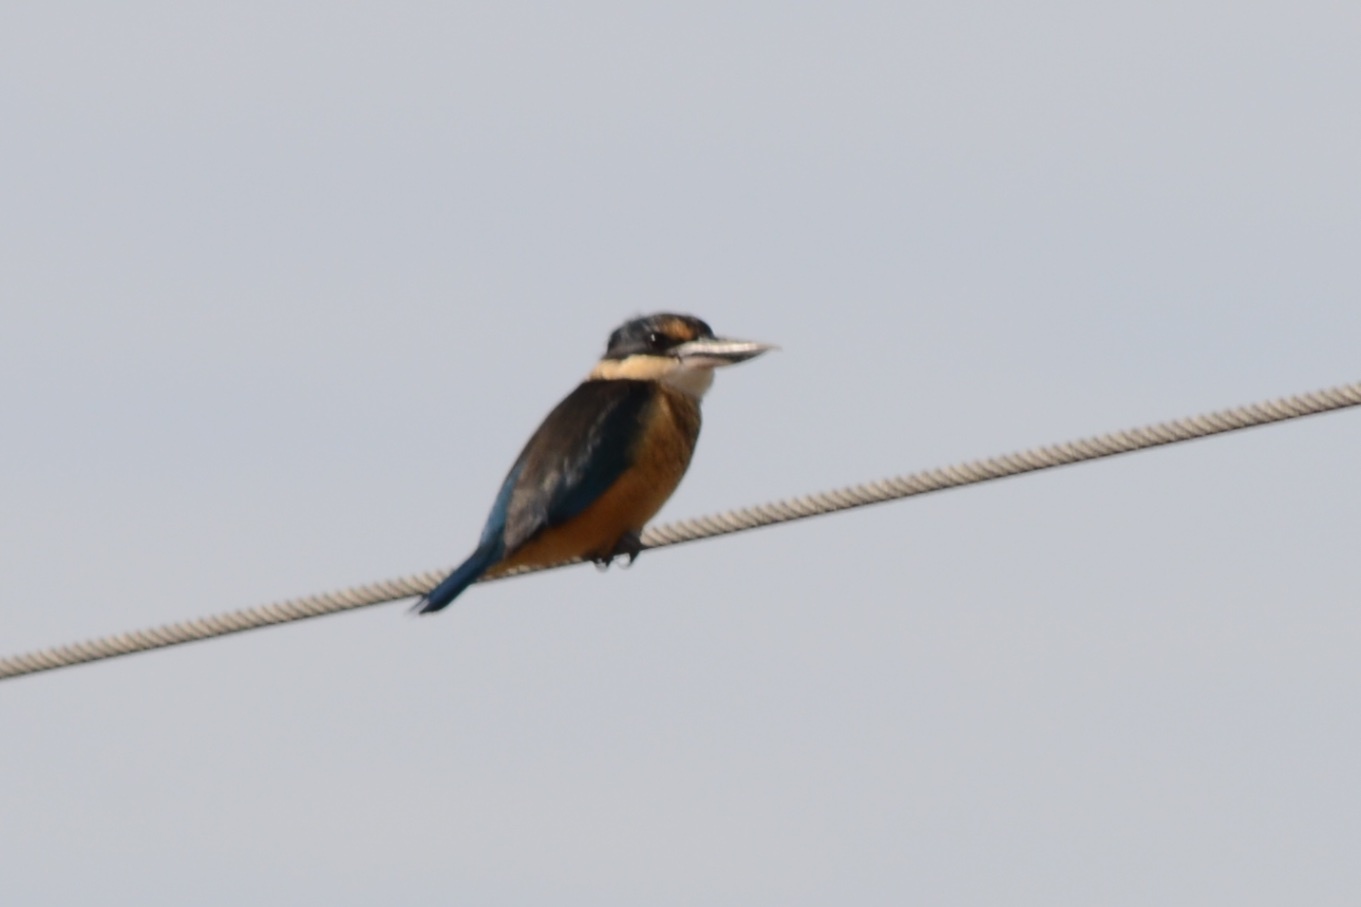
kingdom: Animalia
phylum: Chordata
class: Aves
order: Coraciiformes
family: Alcedinidae
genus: Todiramphus
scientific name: Todiramphus sanctus
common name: Sacred kingfisher
